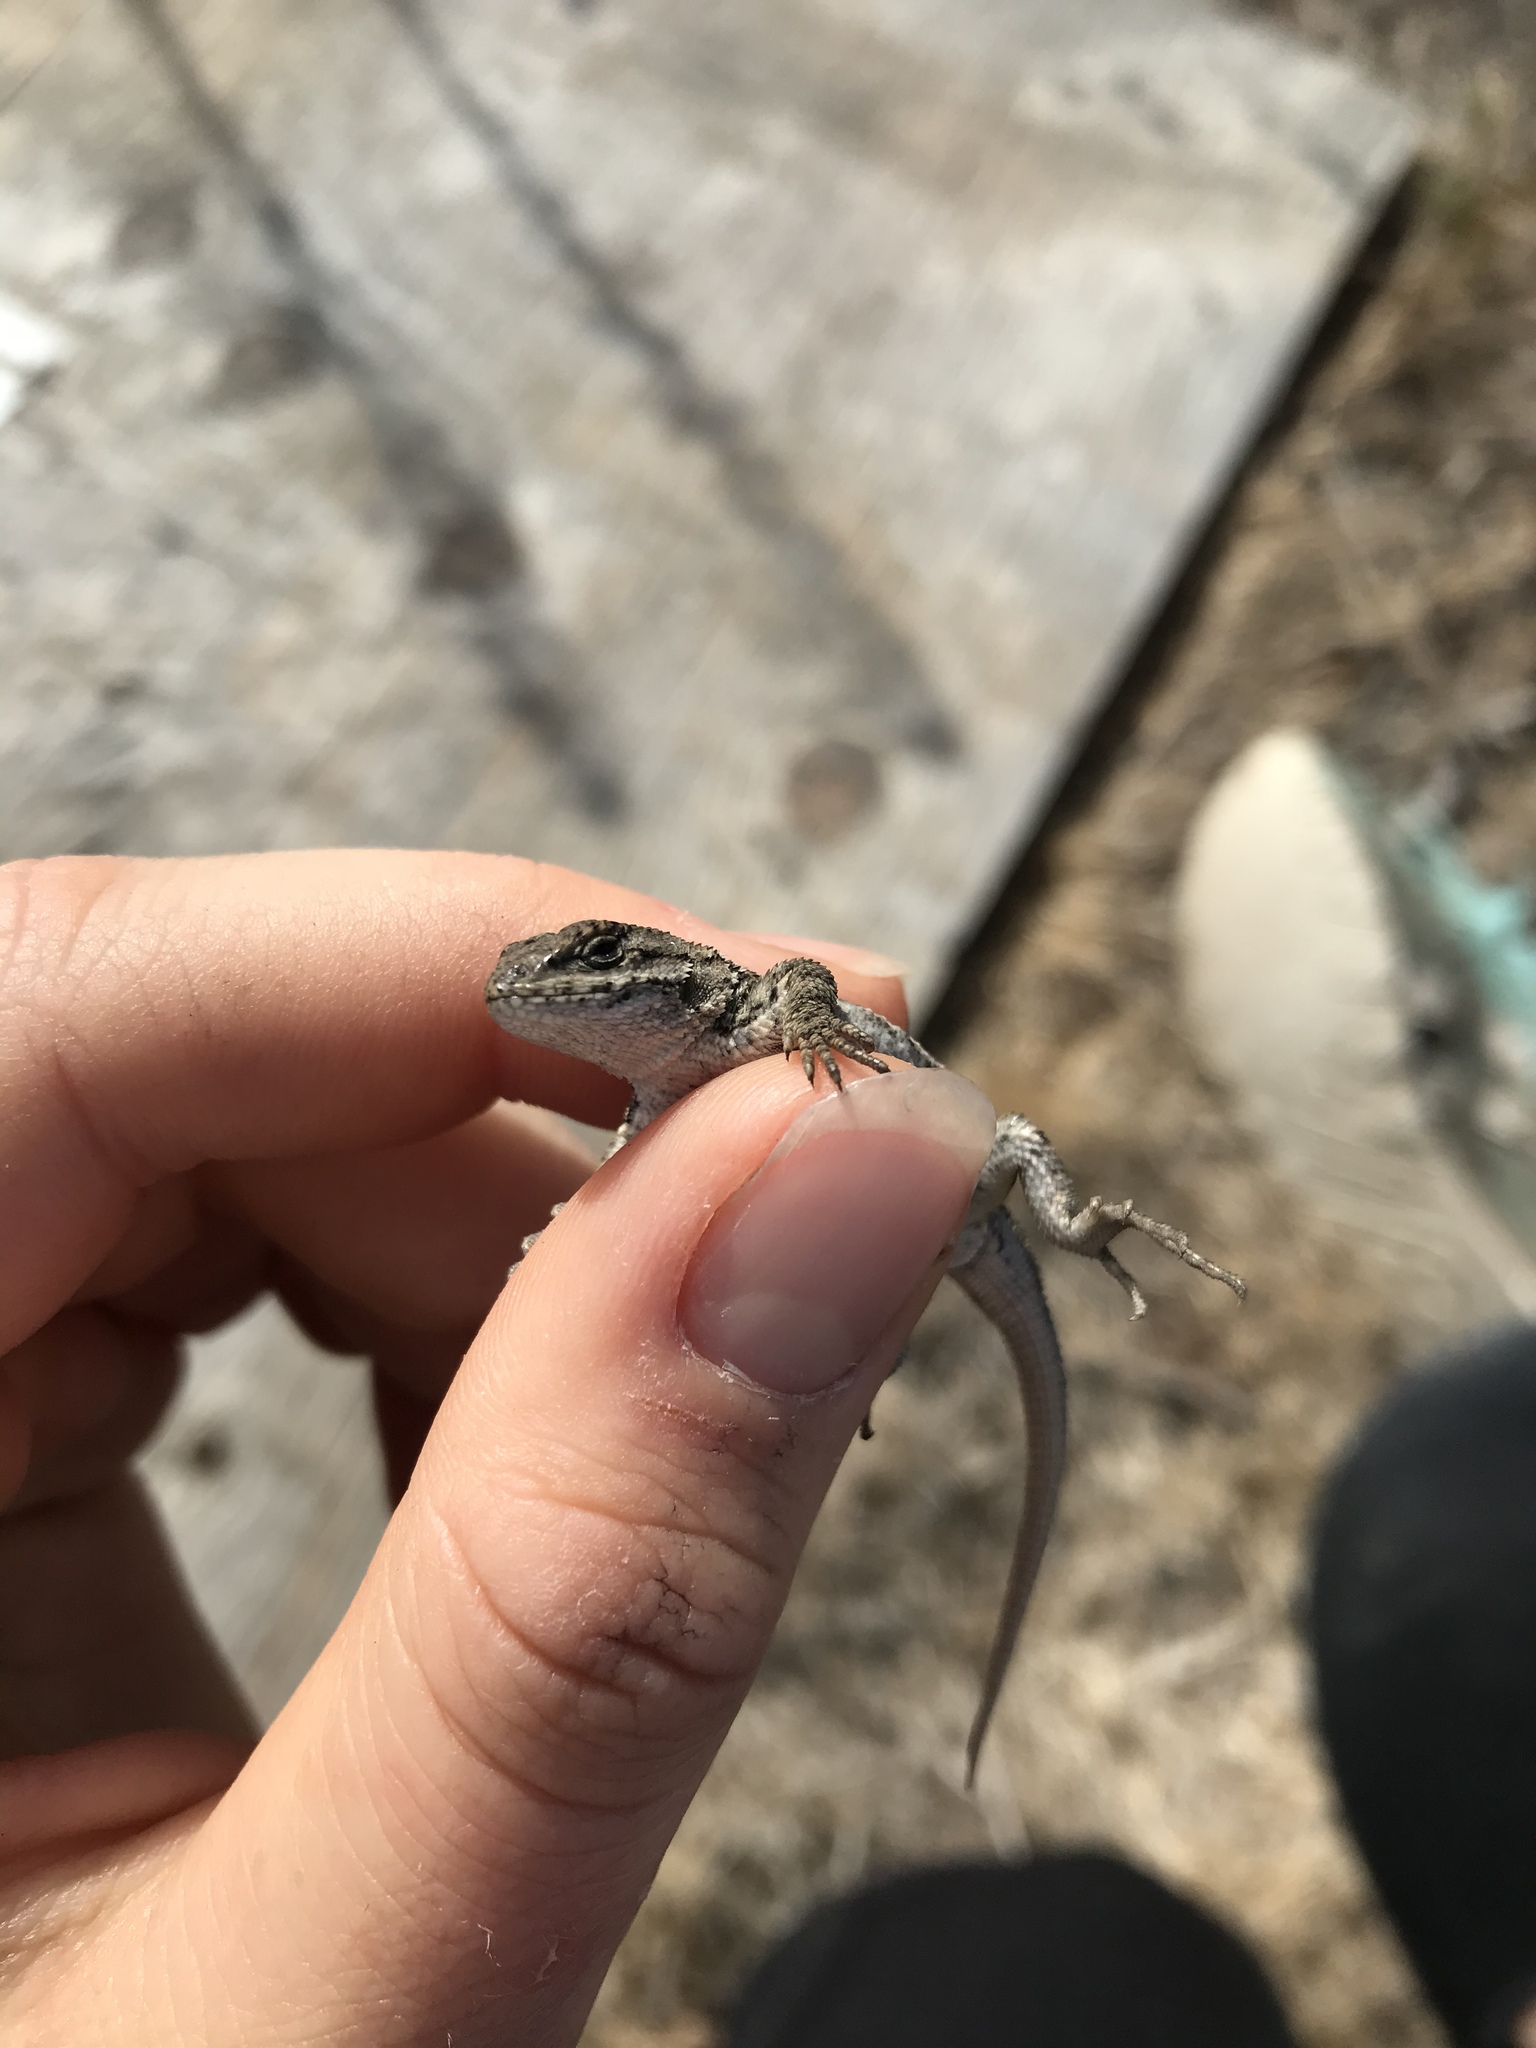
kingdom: Animalia
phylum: Chordata
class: Squamata
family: Phrynosomatidae
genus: Sceloporus
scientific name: Sceloporus occidentalis
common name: Western fence lizard
